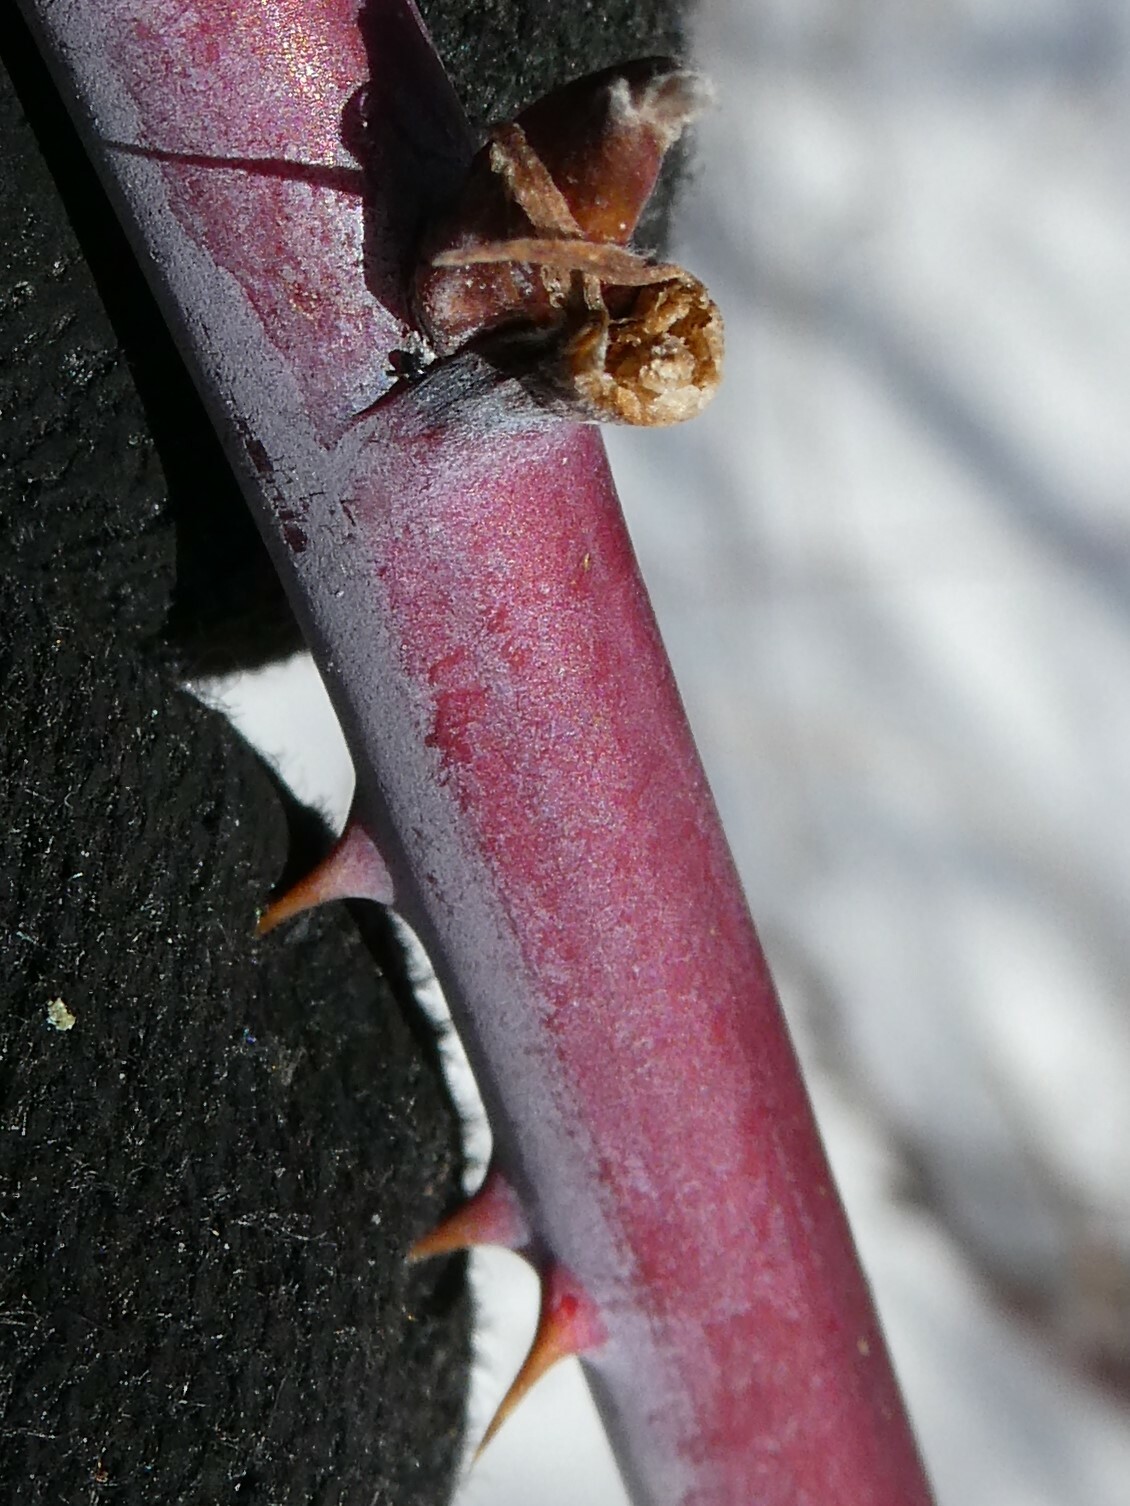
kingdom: Plantae
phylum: Tracheophyta
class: Magnoliopsida
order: Rosales
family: Rosaceae
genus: Rubus
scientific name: Rubus occidentalis
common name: Black raspberry
